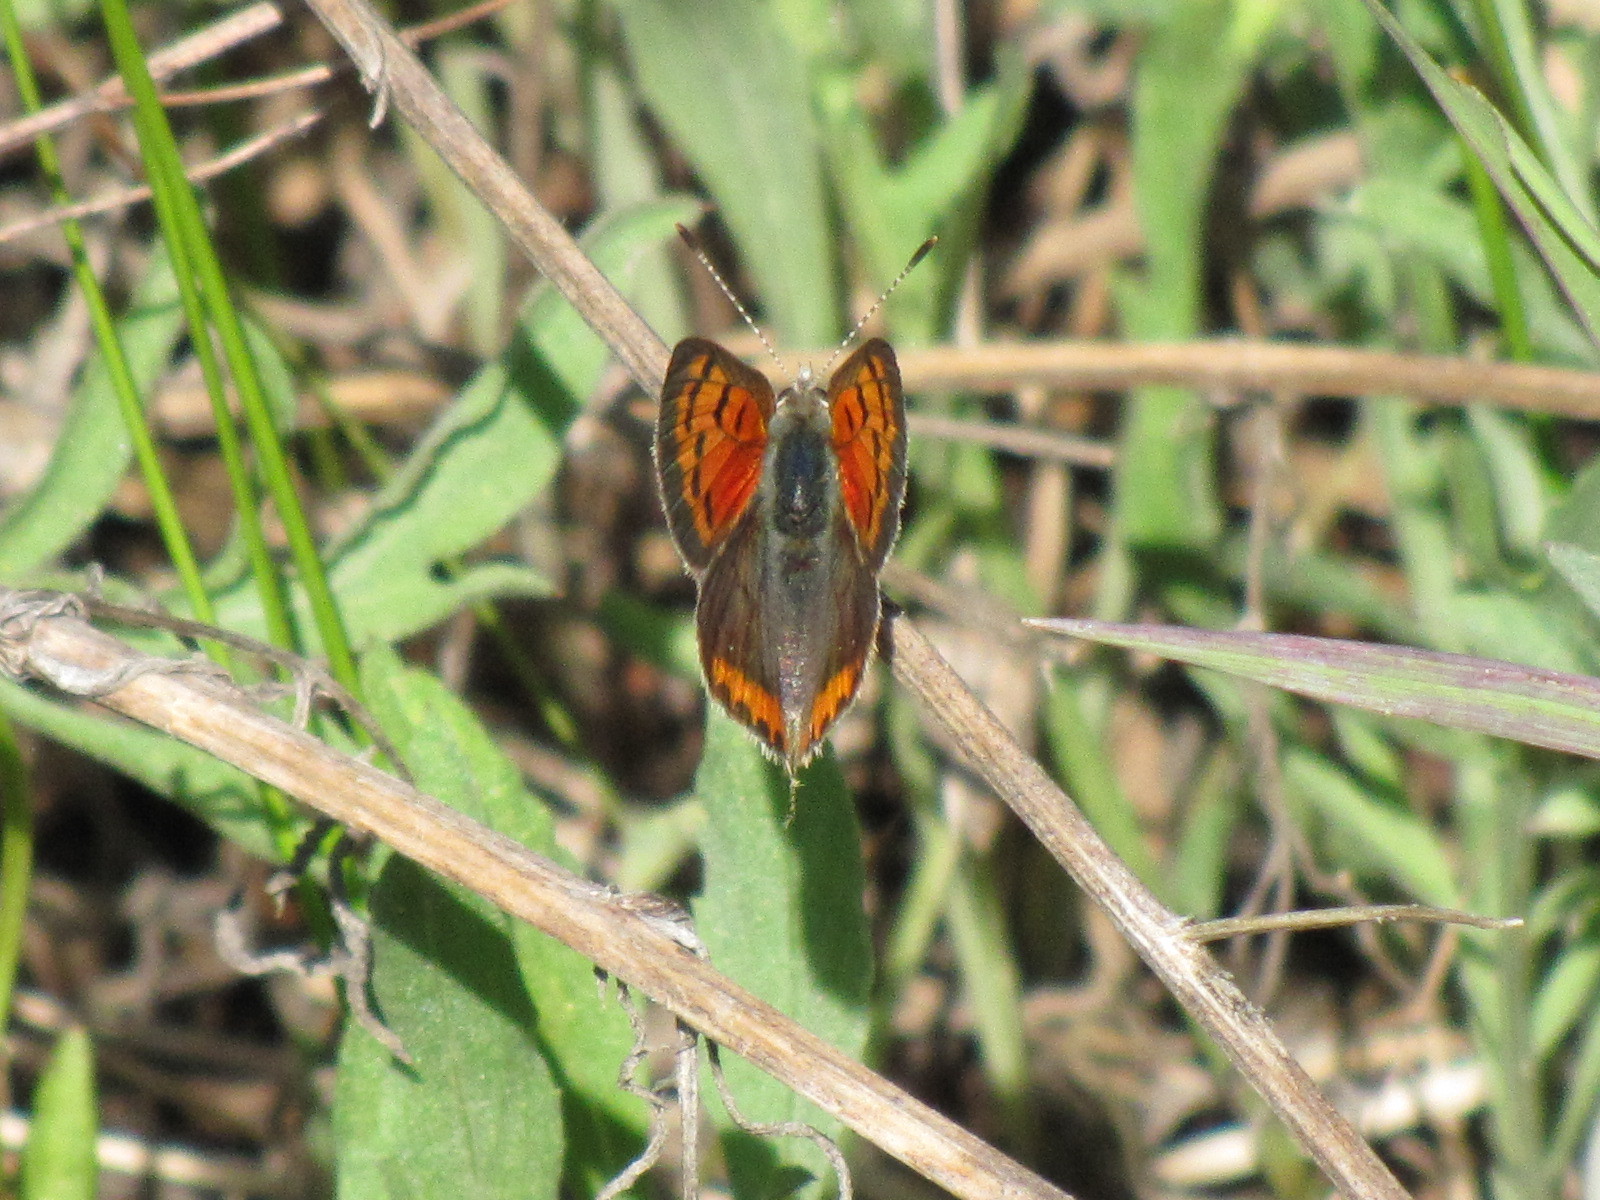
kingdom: Animalia
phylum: Arthropoda
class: Insecta
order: Lepidoptera
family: Lycaenidae
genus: Lycaena
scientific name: Lycaena hypophlaeas
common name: American copper
